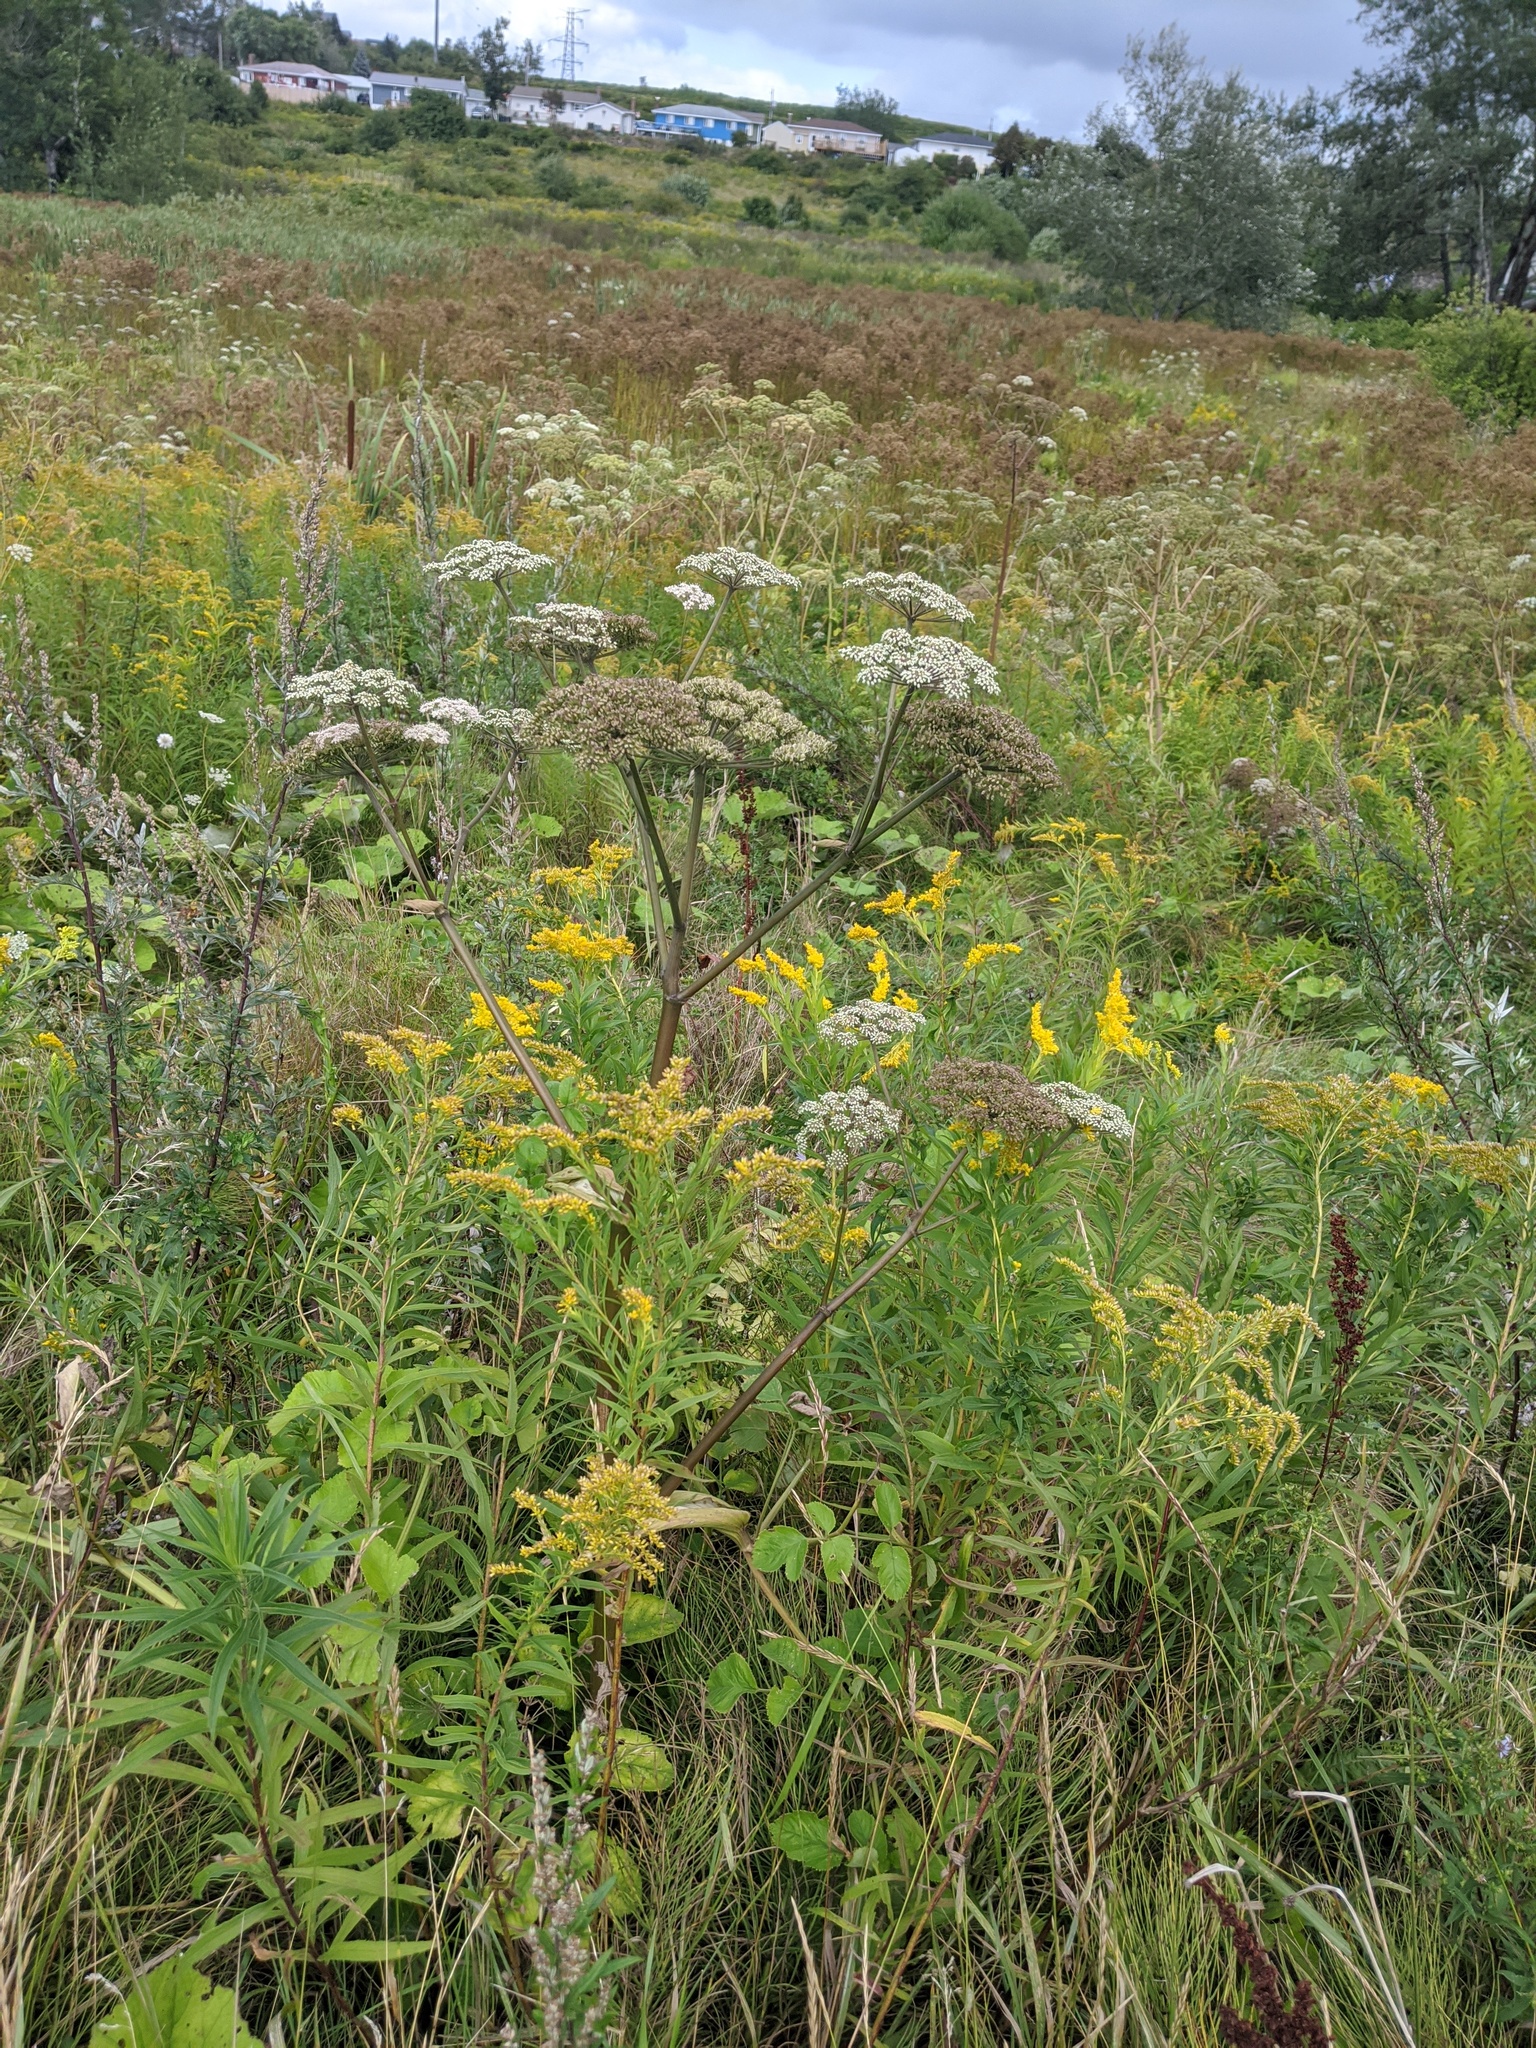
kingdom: Plantae
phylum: Tracheophyta
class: Magnoliopsida
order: Apiales
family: Apiaceae
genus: Angelica
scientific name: Angelica sylvestris
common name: Wild angelica
